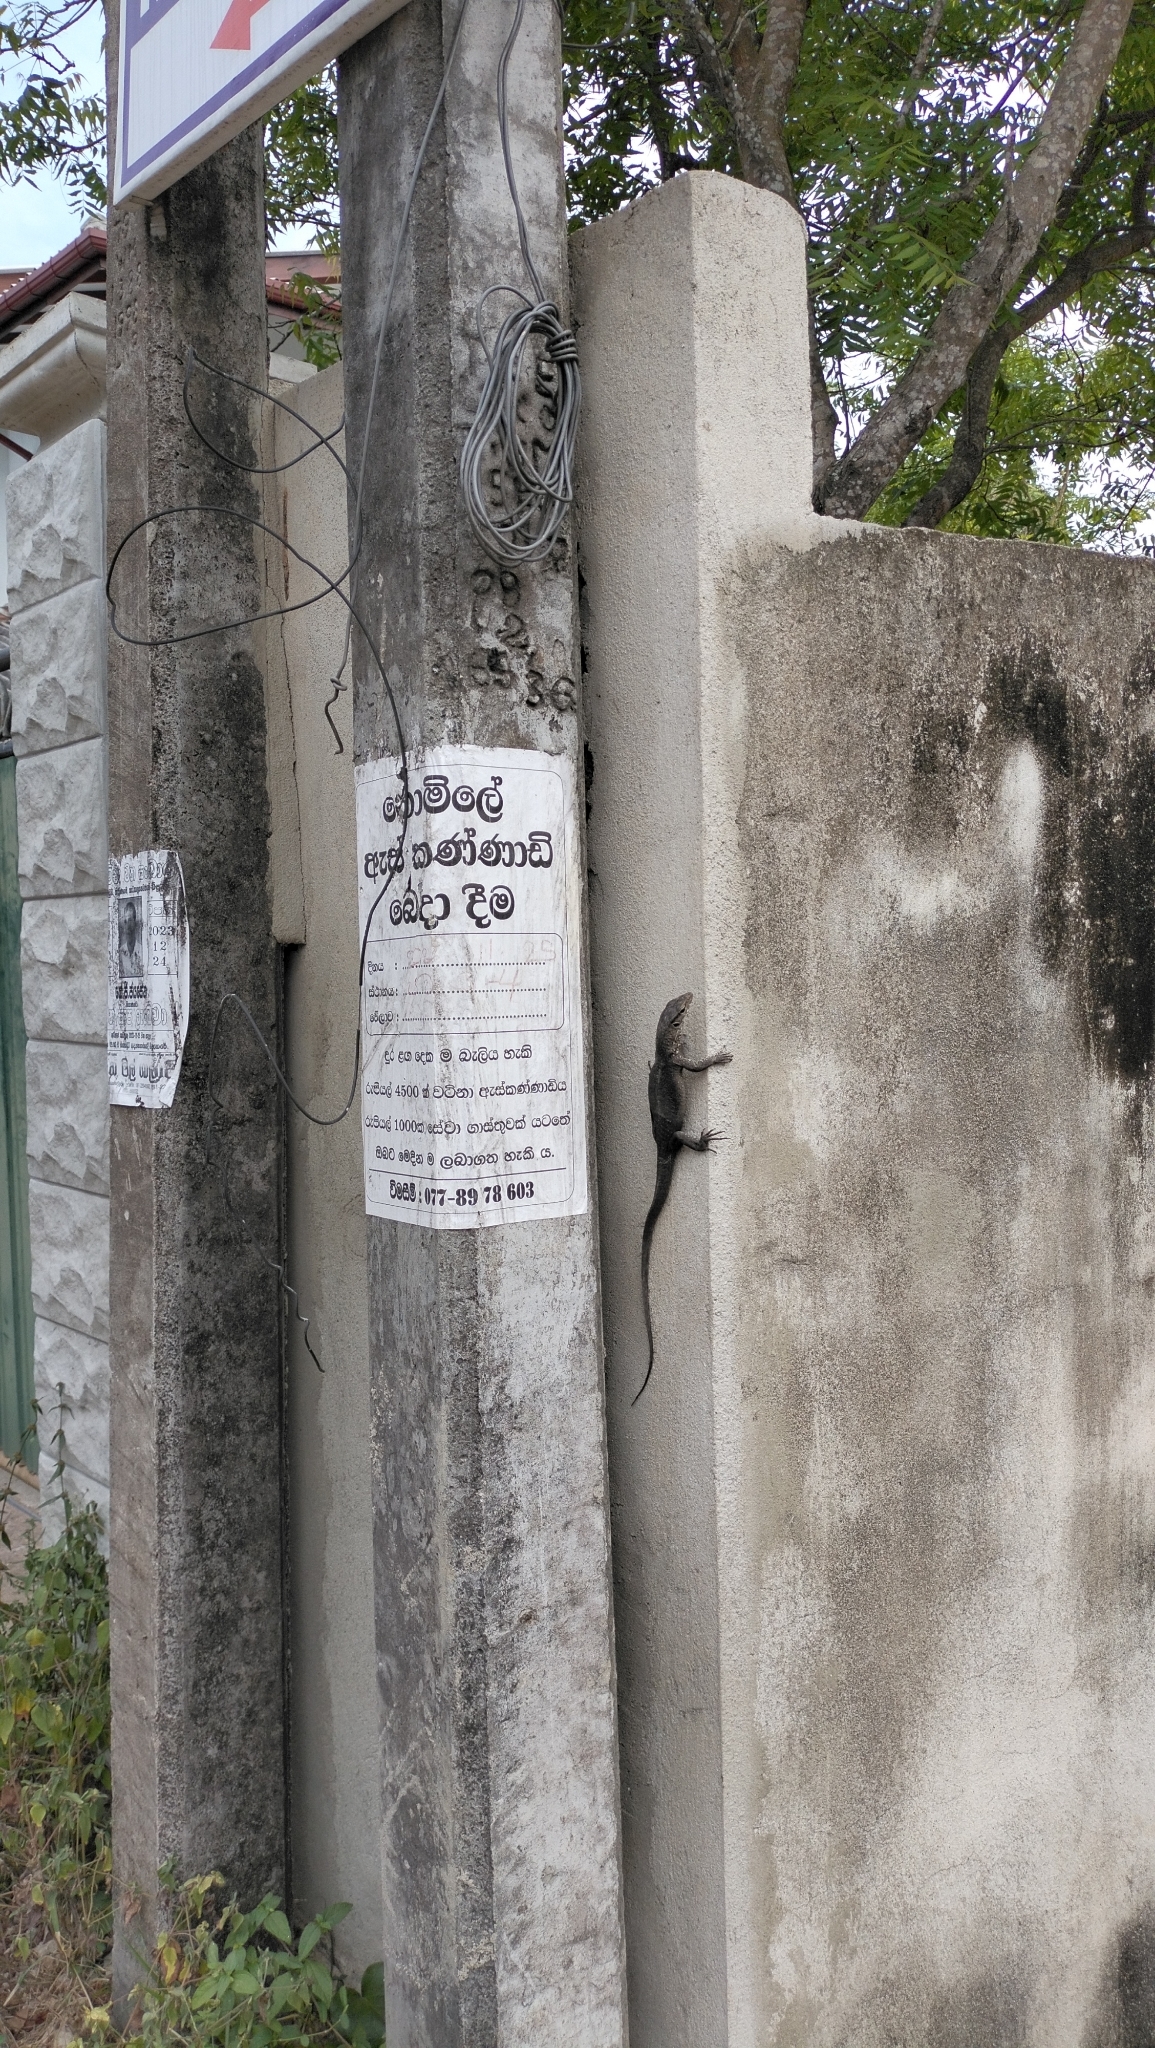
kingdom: Animalia
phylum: Chordata
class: Squamata
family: Varanidae
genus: Varanus
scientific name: Varanus bengalensis
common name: Bengal monitor
